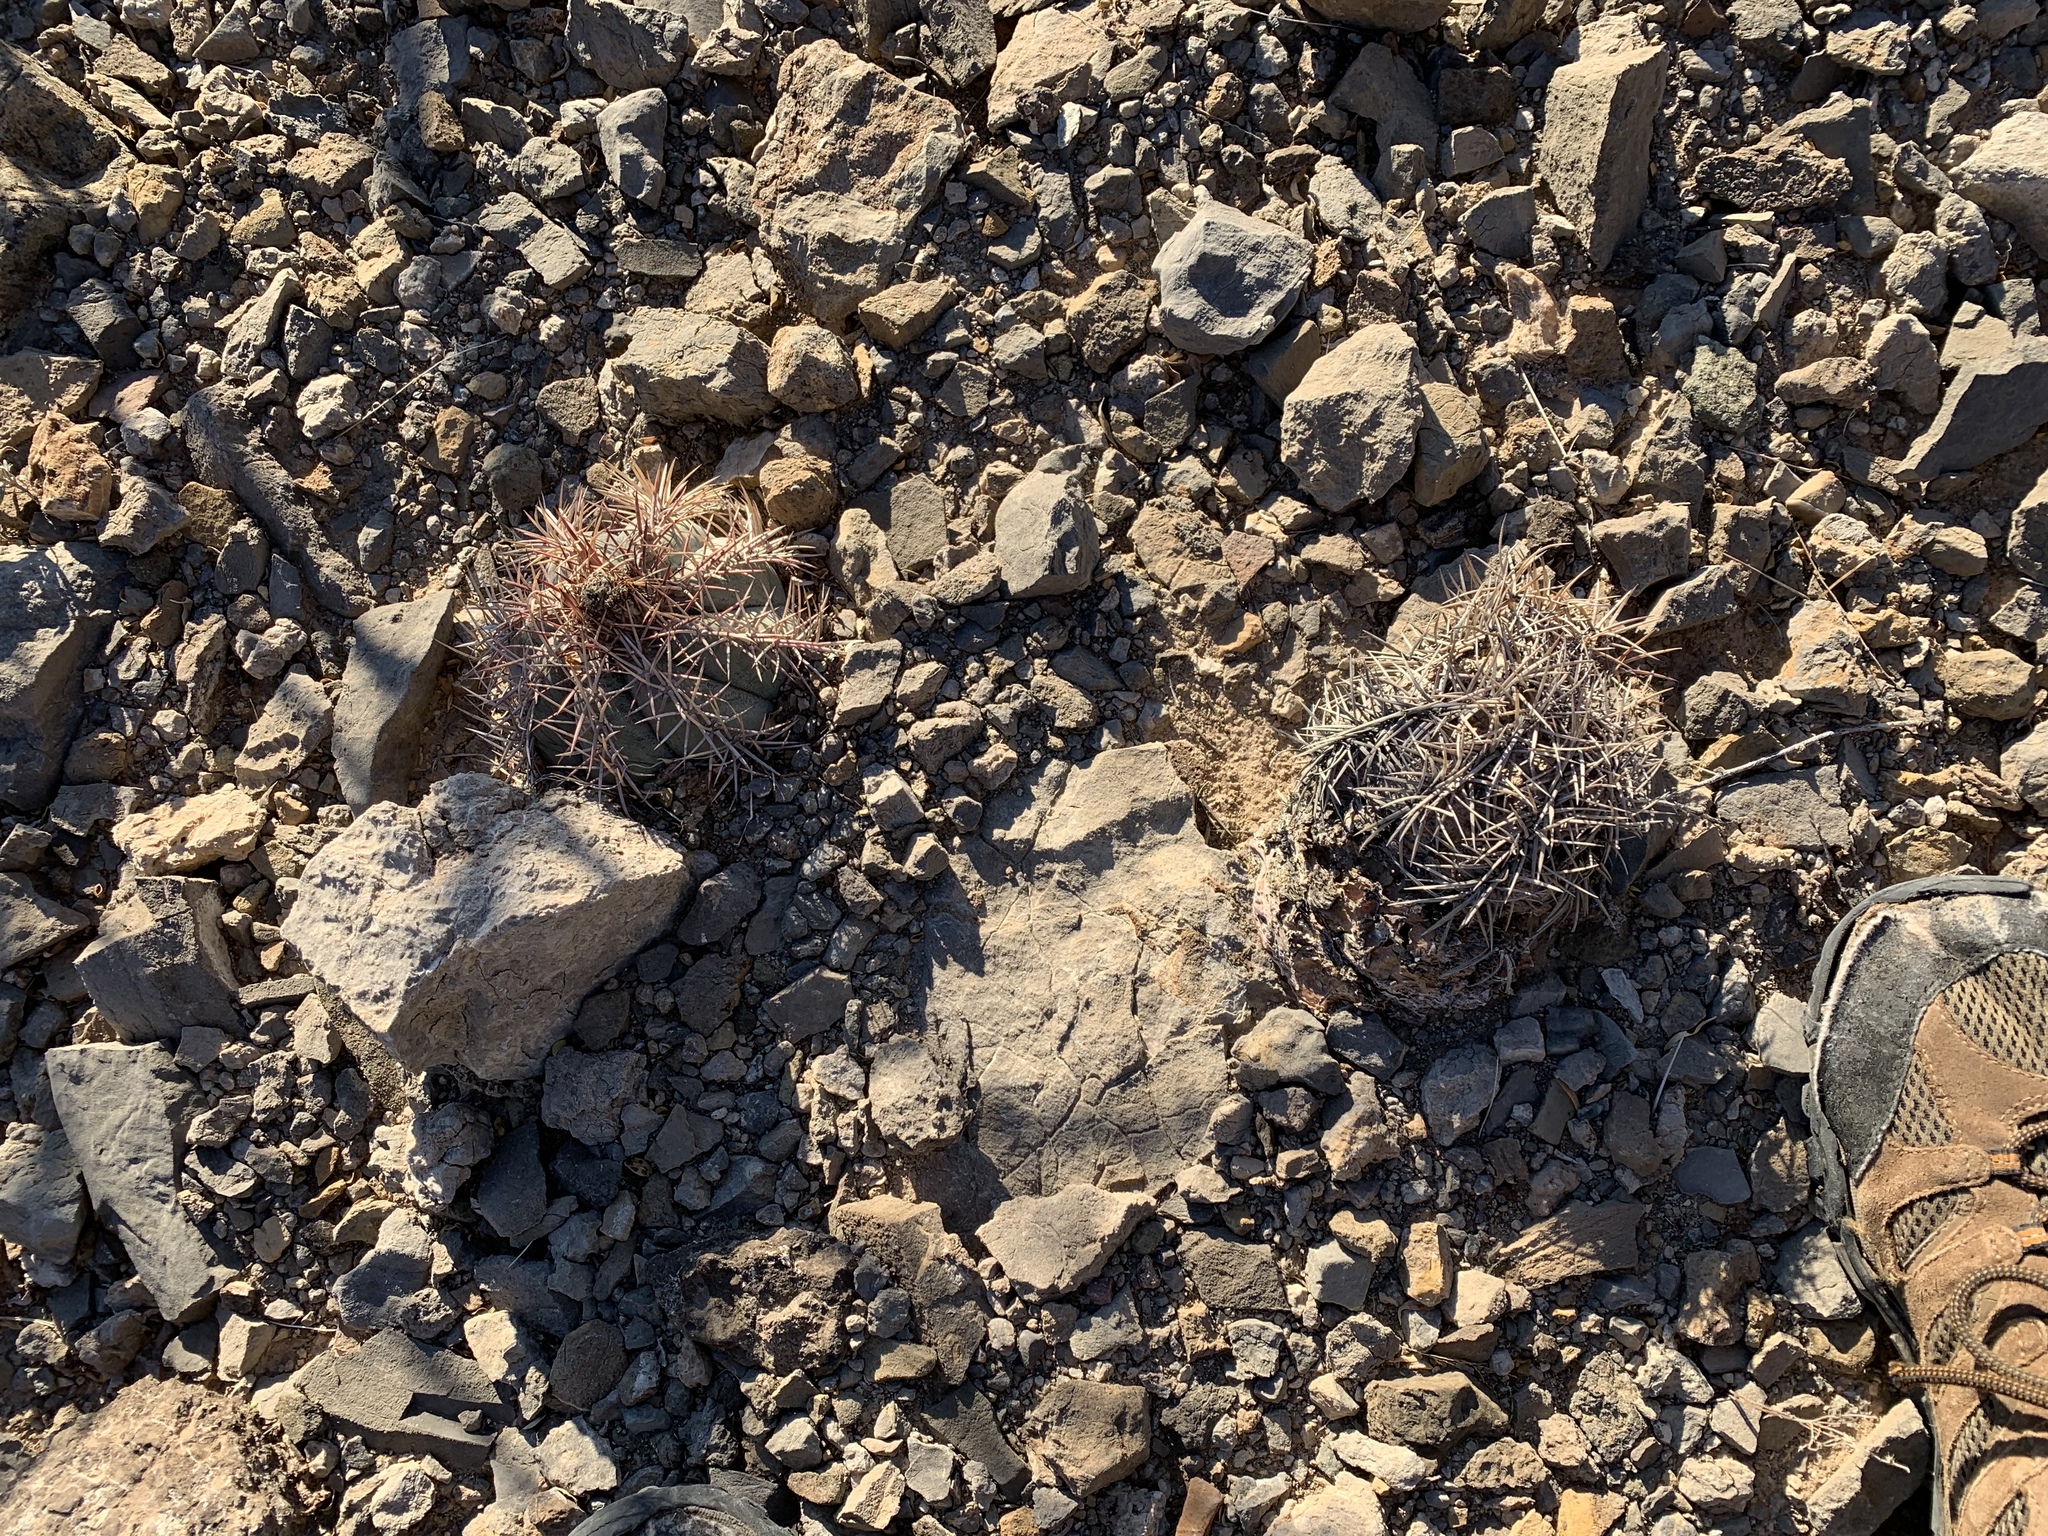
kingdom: Plantae
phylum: Tracheophyta
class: Magnoliopsida
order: Caryophyllales
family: Cactaceae
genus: Echinocactus
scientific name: Echinocactus horizonthalonius
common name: Devilshead
